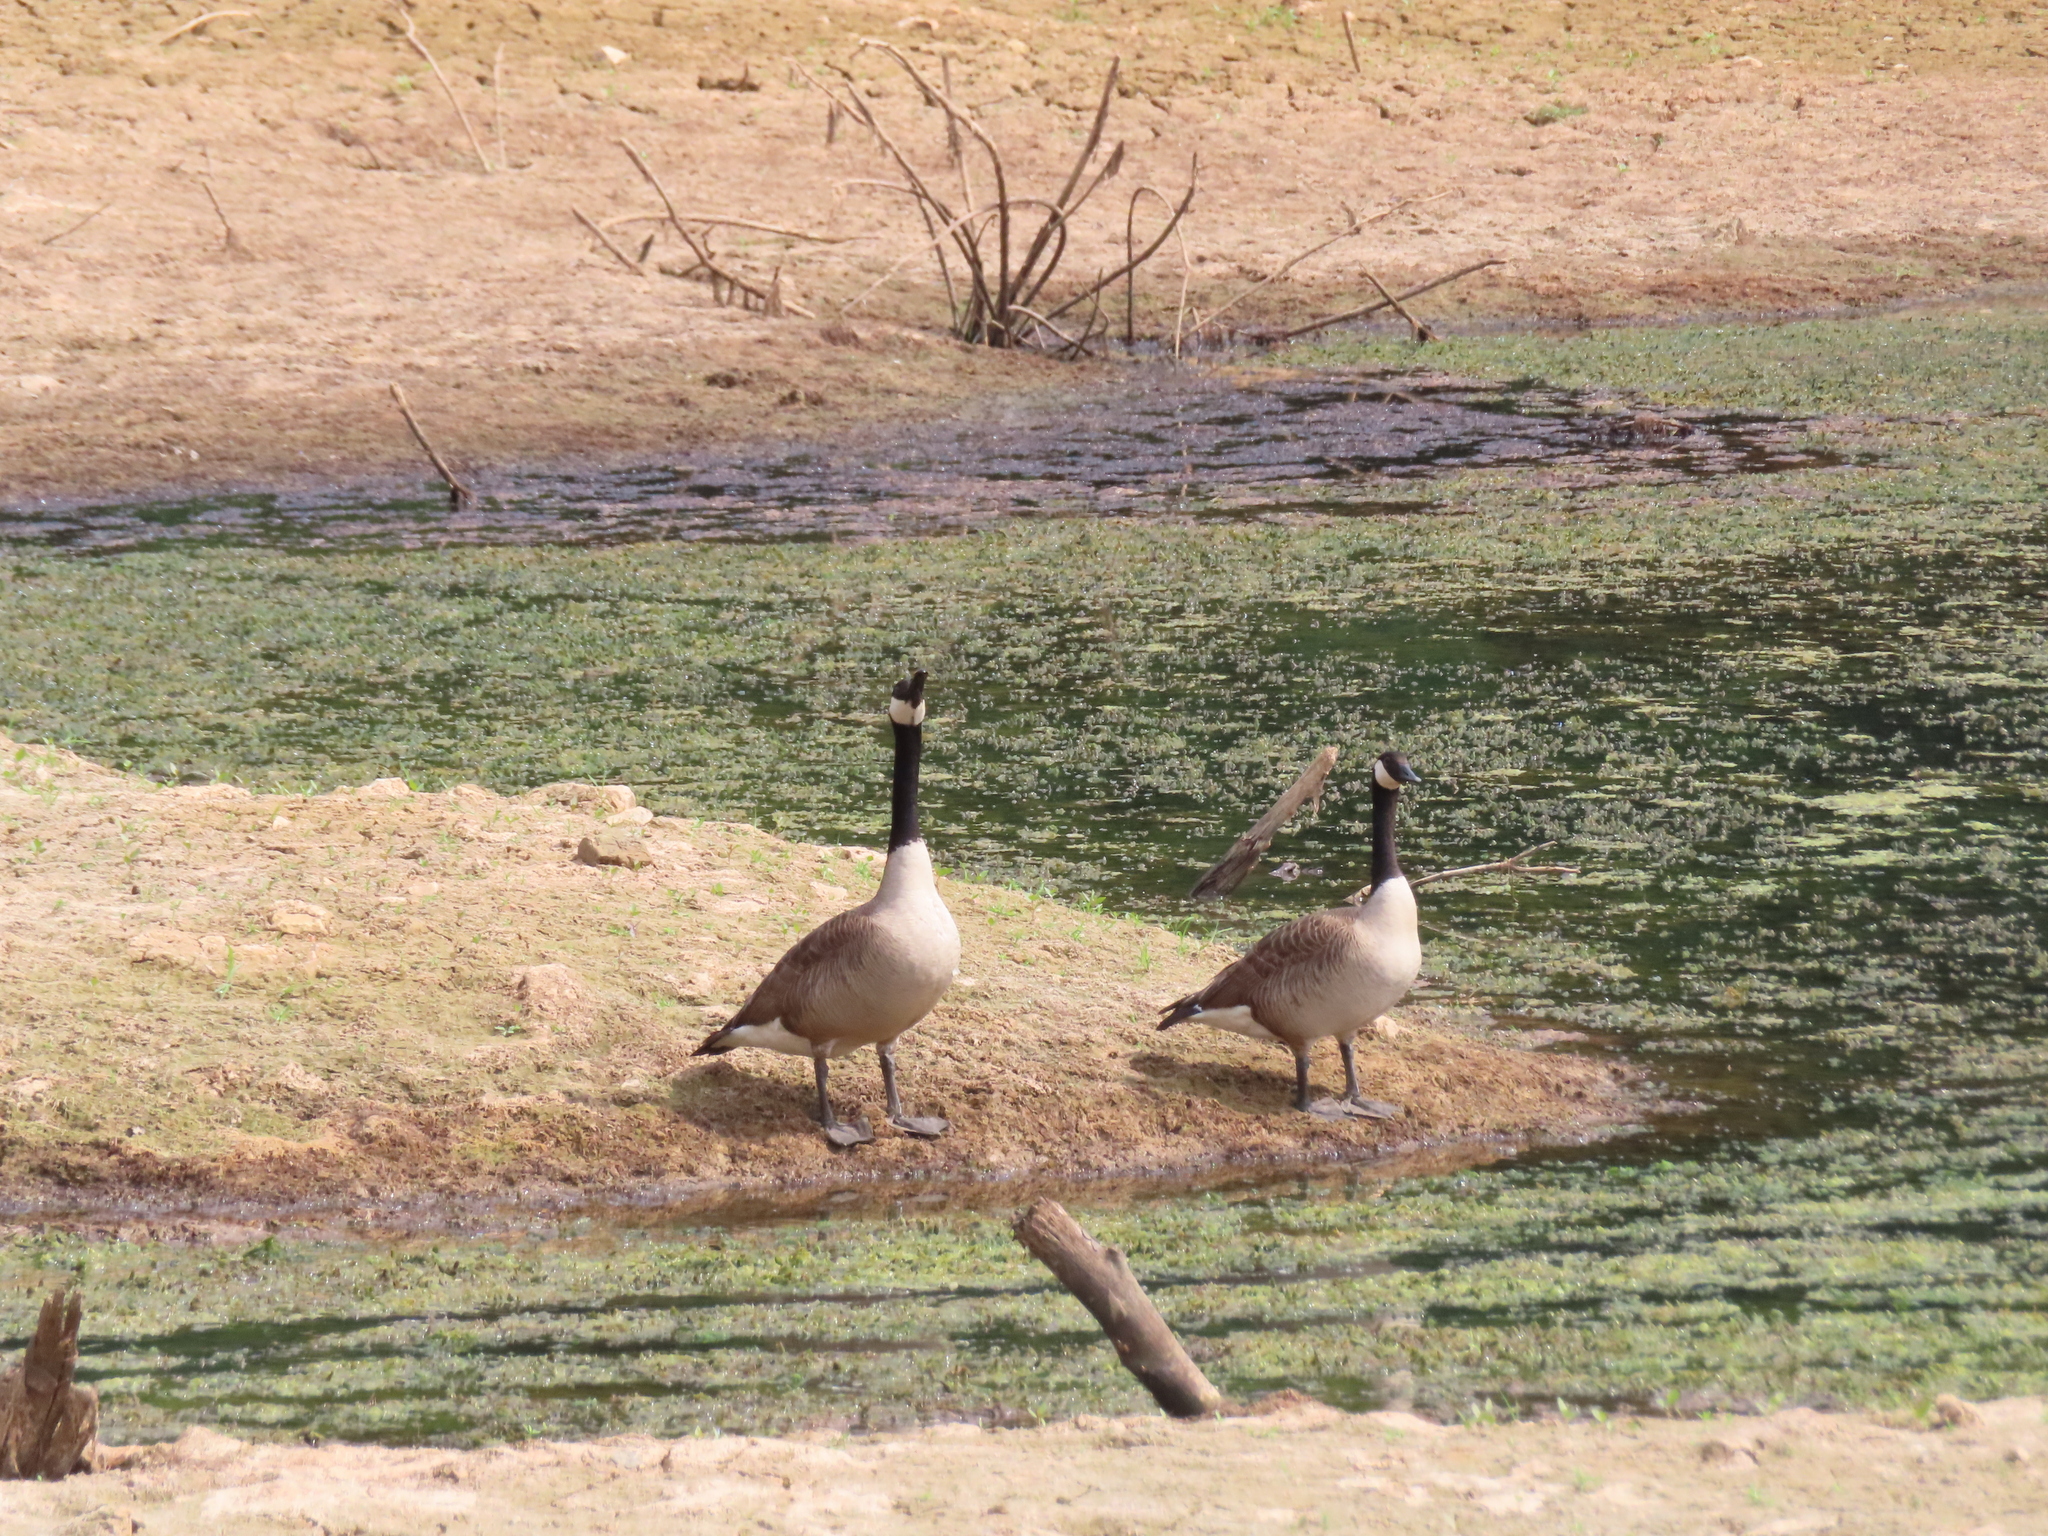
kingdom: Animalia
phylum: Chordata
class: Aves
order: Anseriformes
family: Anatidae
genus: Branta
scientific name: Branta canadensis
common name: Canada goose
